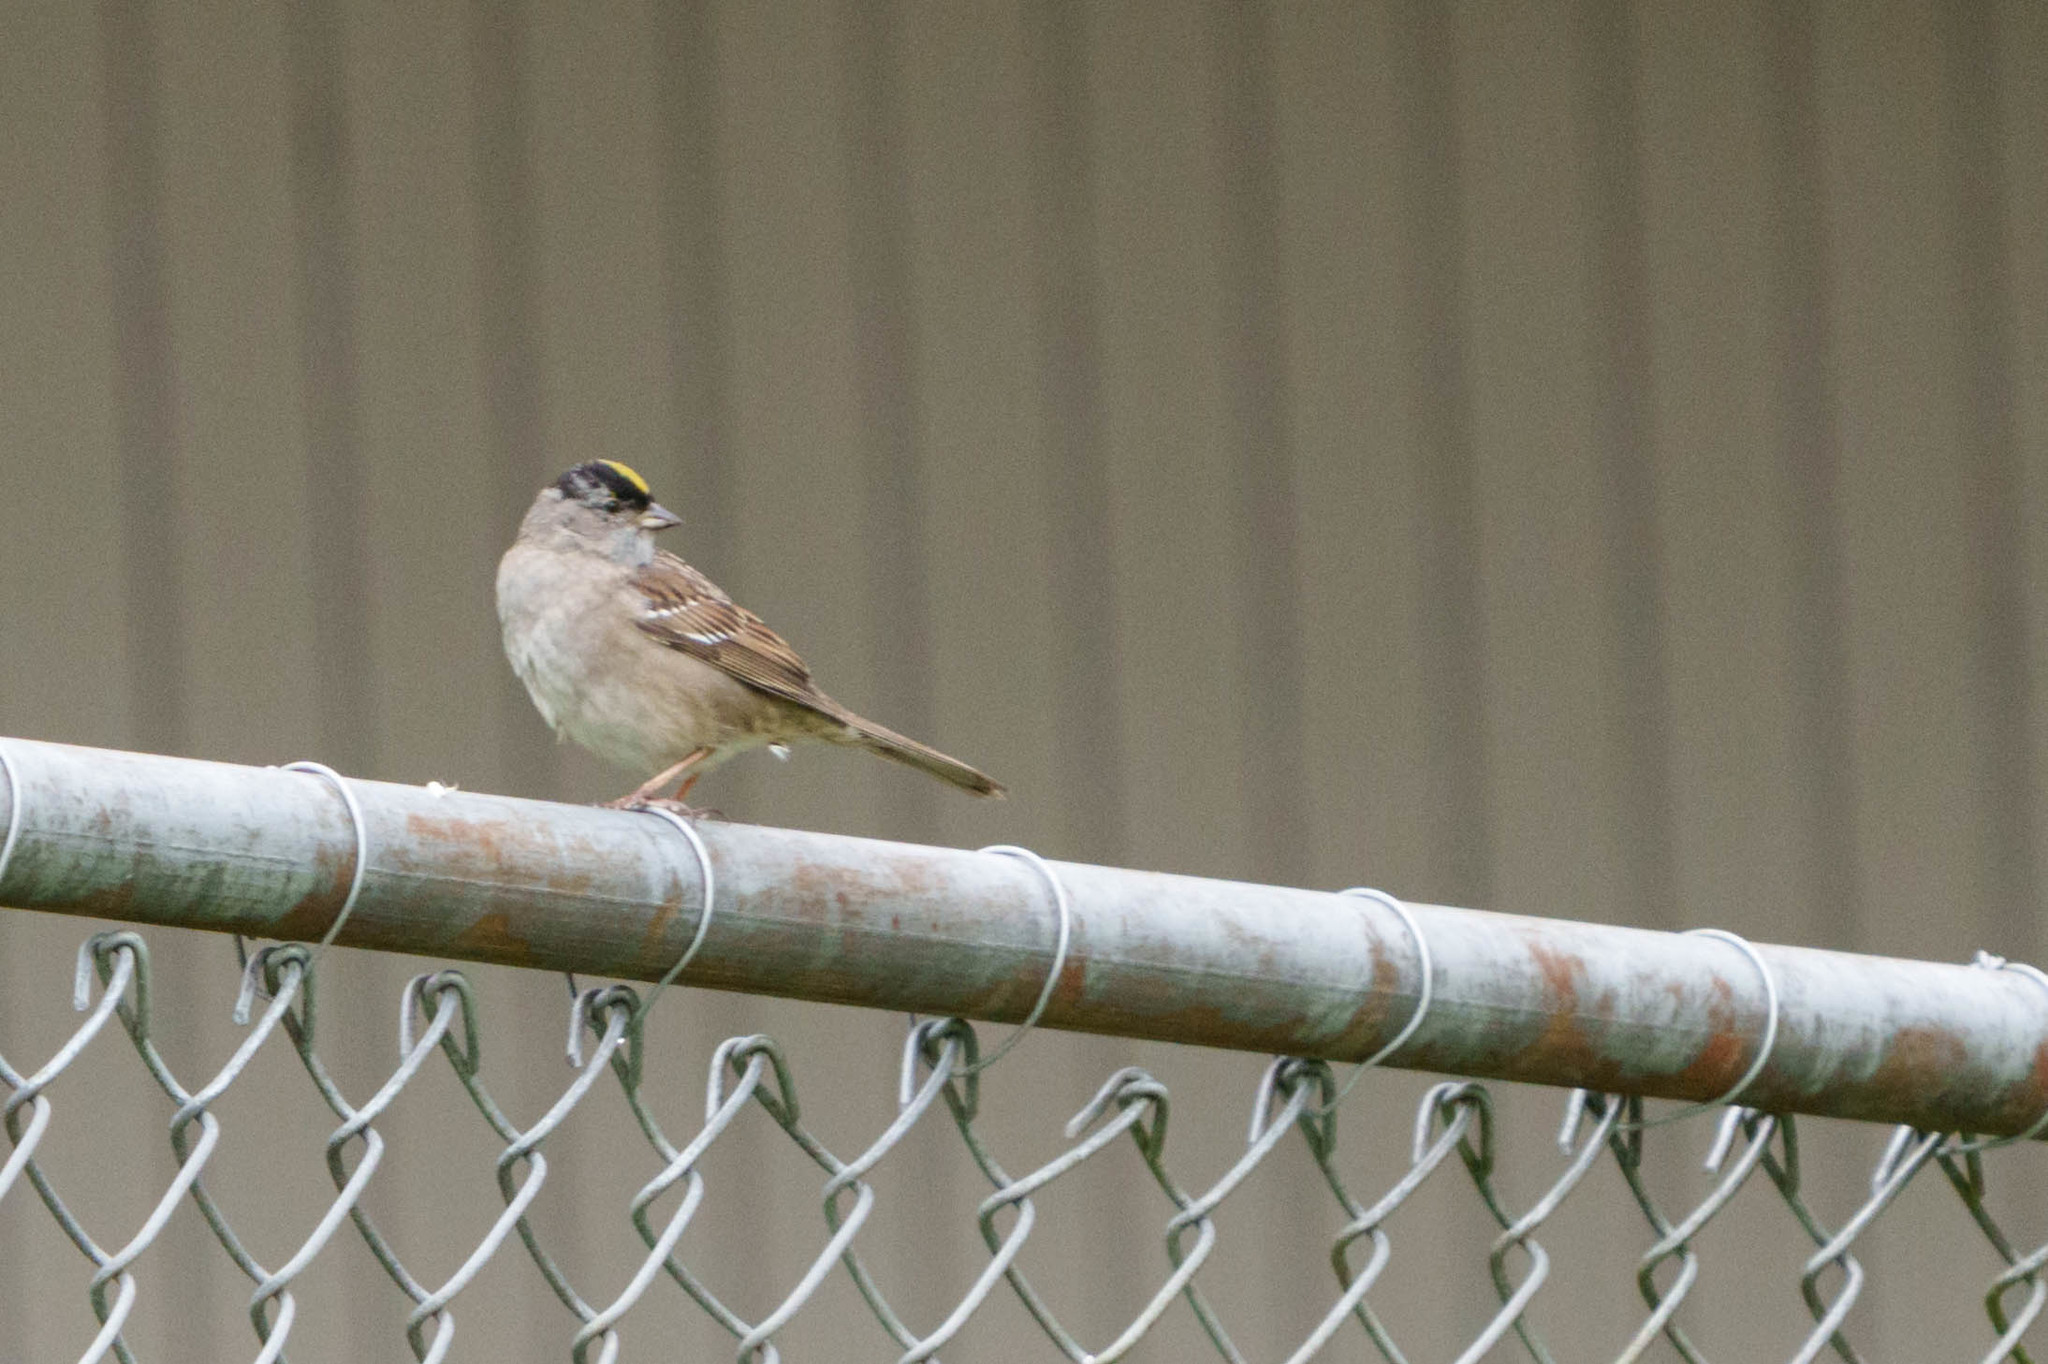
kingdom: Animalia
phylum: Chordata
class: Aves
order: Passeriformes
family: Passerellidae
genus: Zonotrichia
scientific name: Zonotrichia atricapilla
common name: Golden-crowned sparrow
